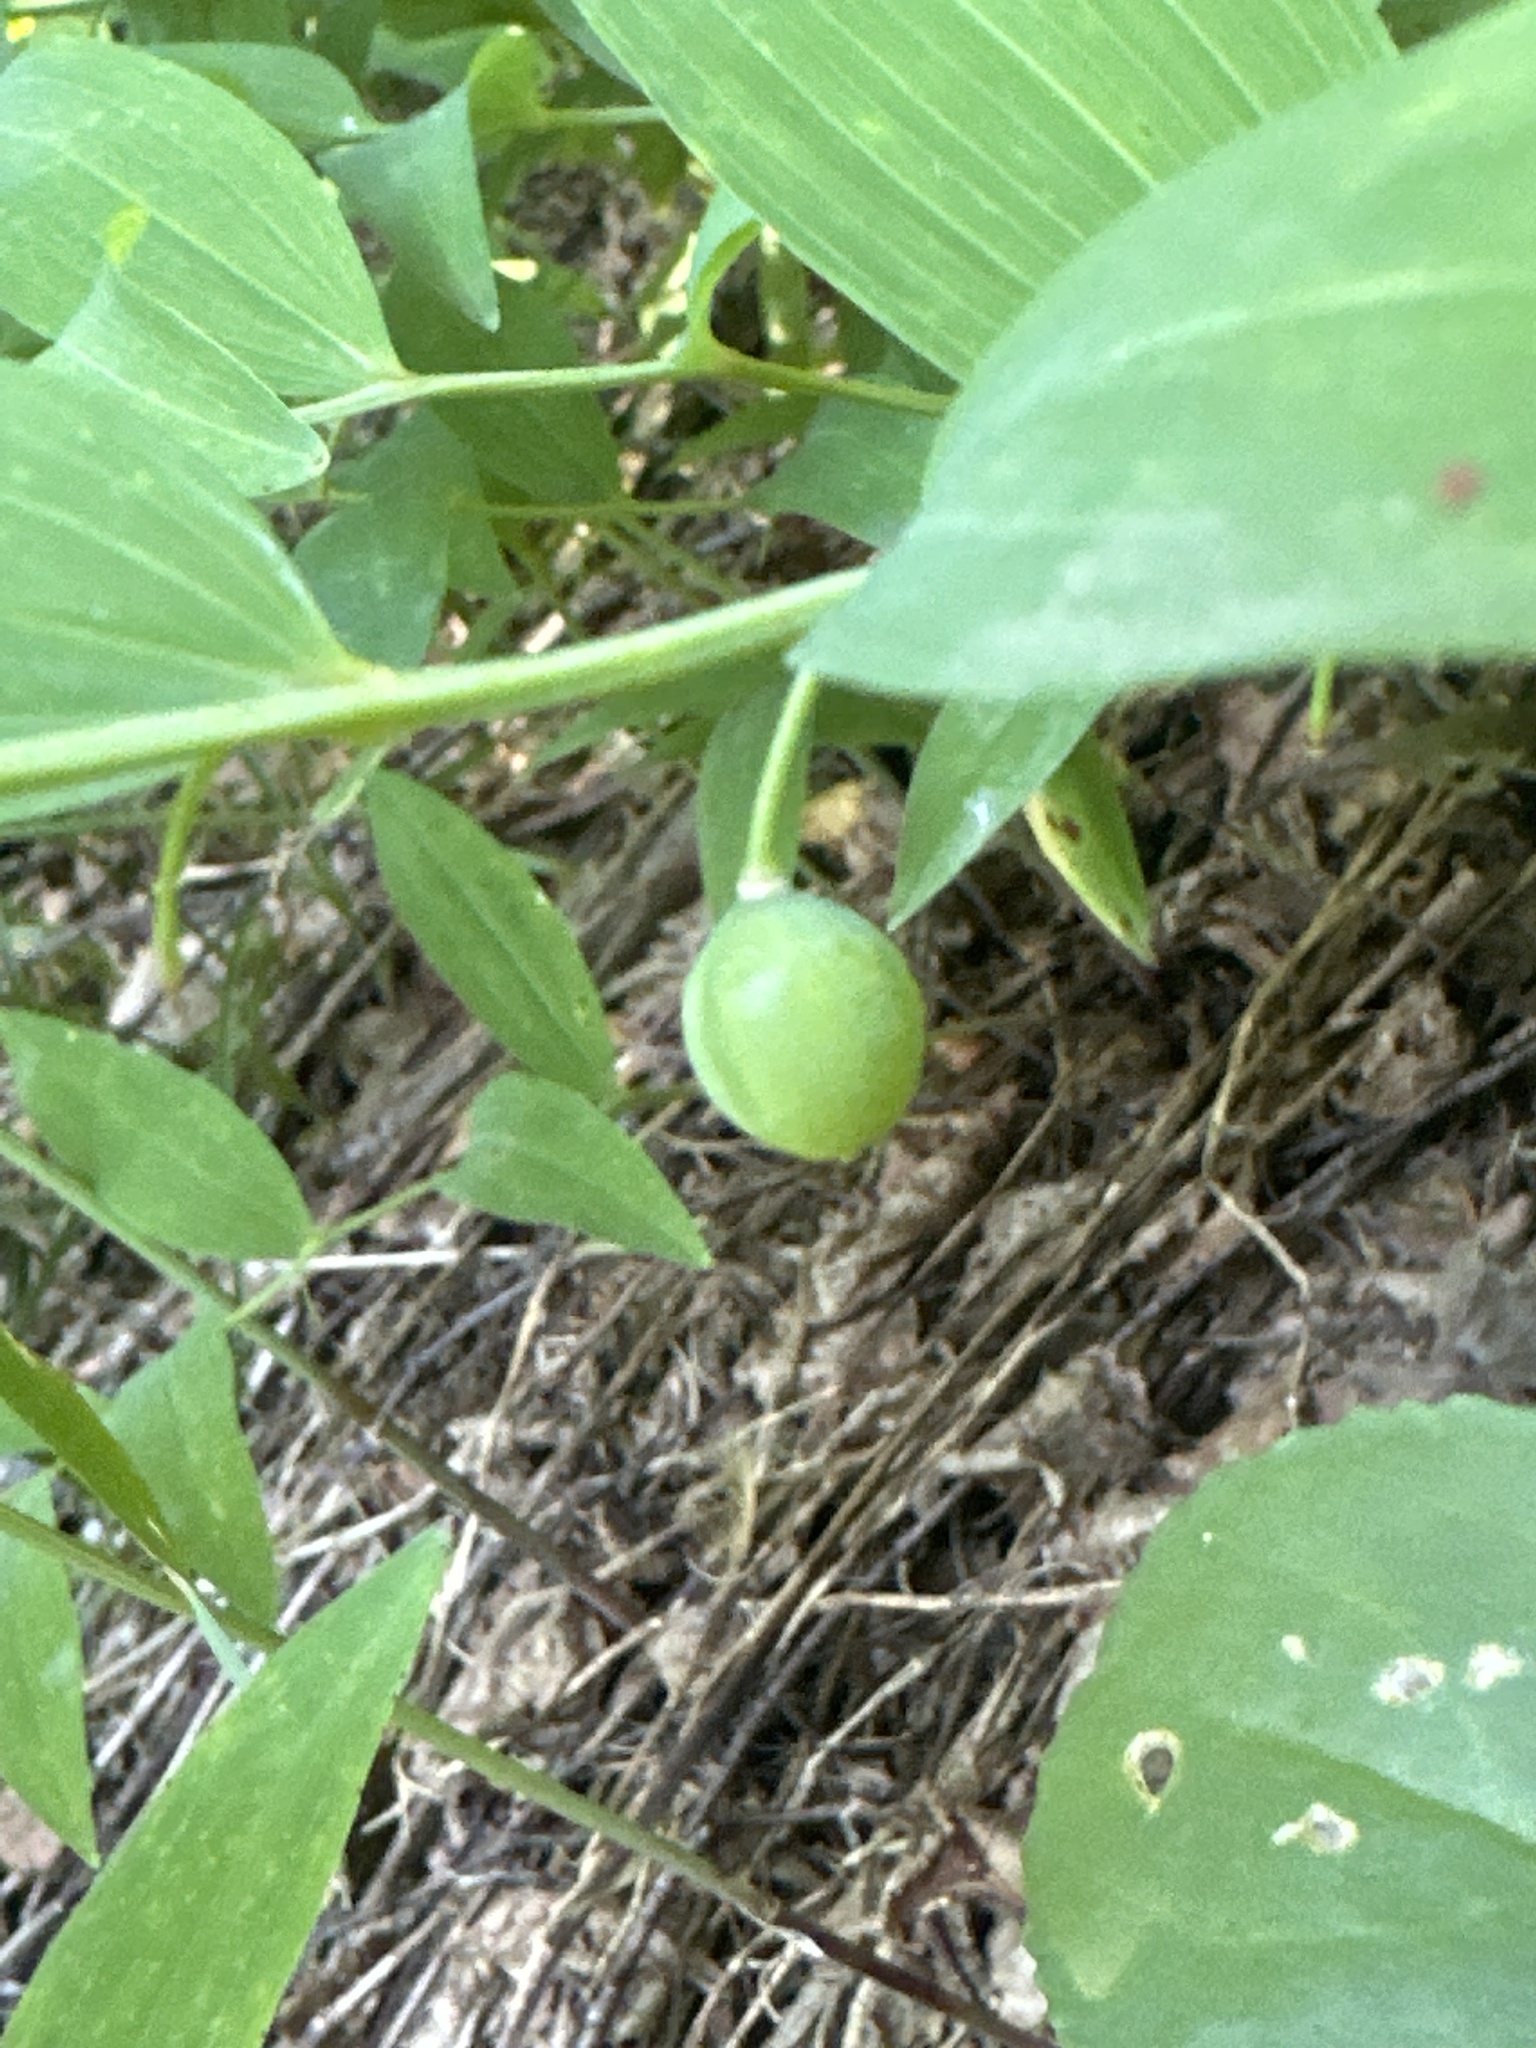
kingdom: Plantae
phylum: Tracheophyta
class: Liliopsida
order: Asparagales
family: Asparagaceae
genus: Polygonatum
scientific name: Polygonatum odoratum
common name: Angular solomon's-seal
